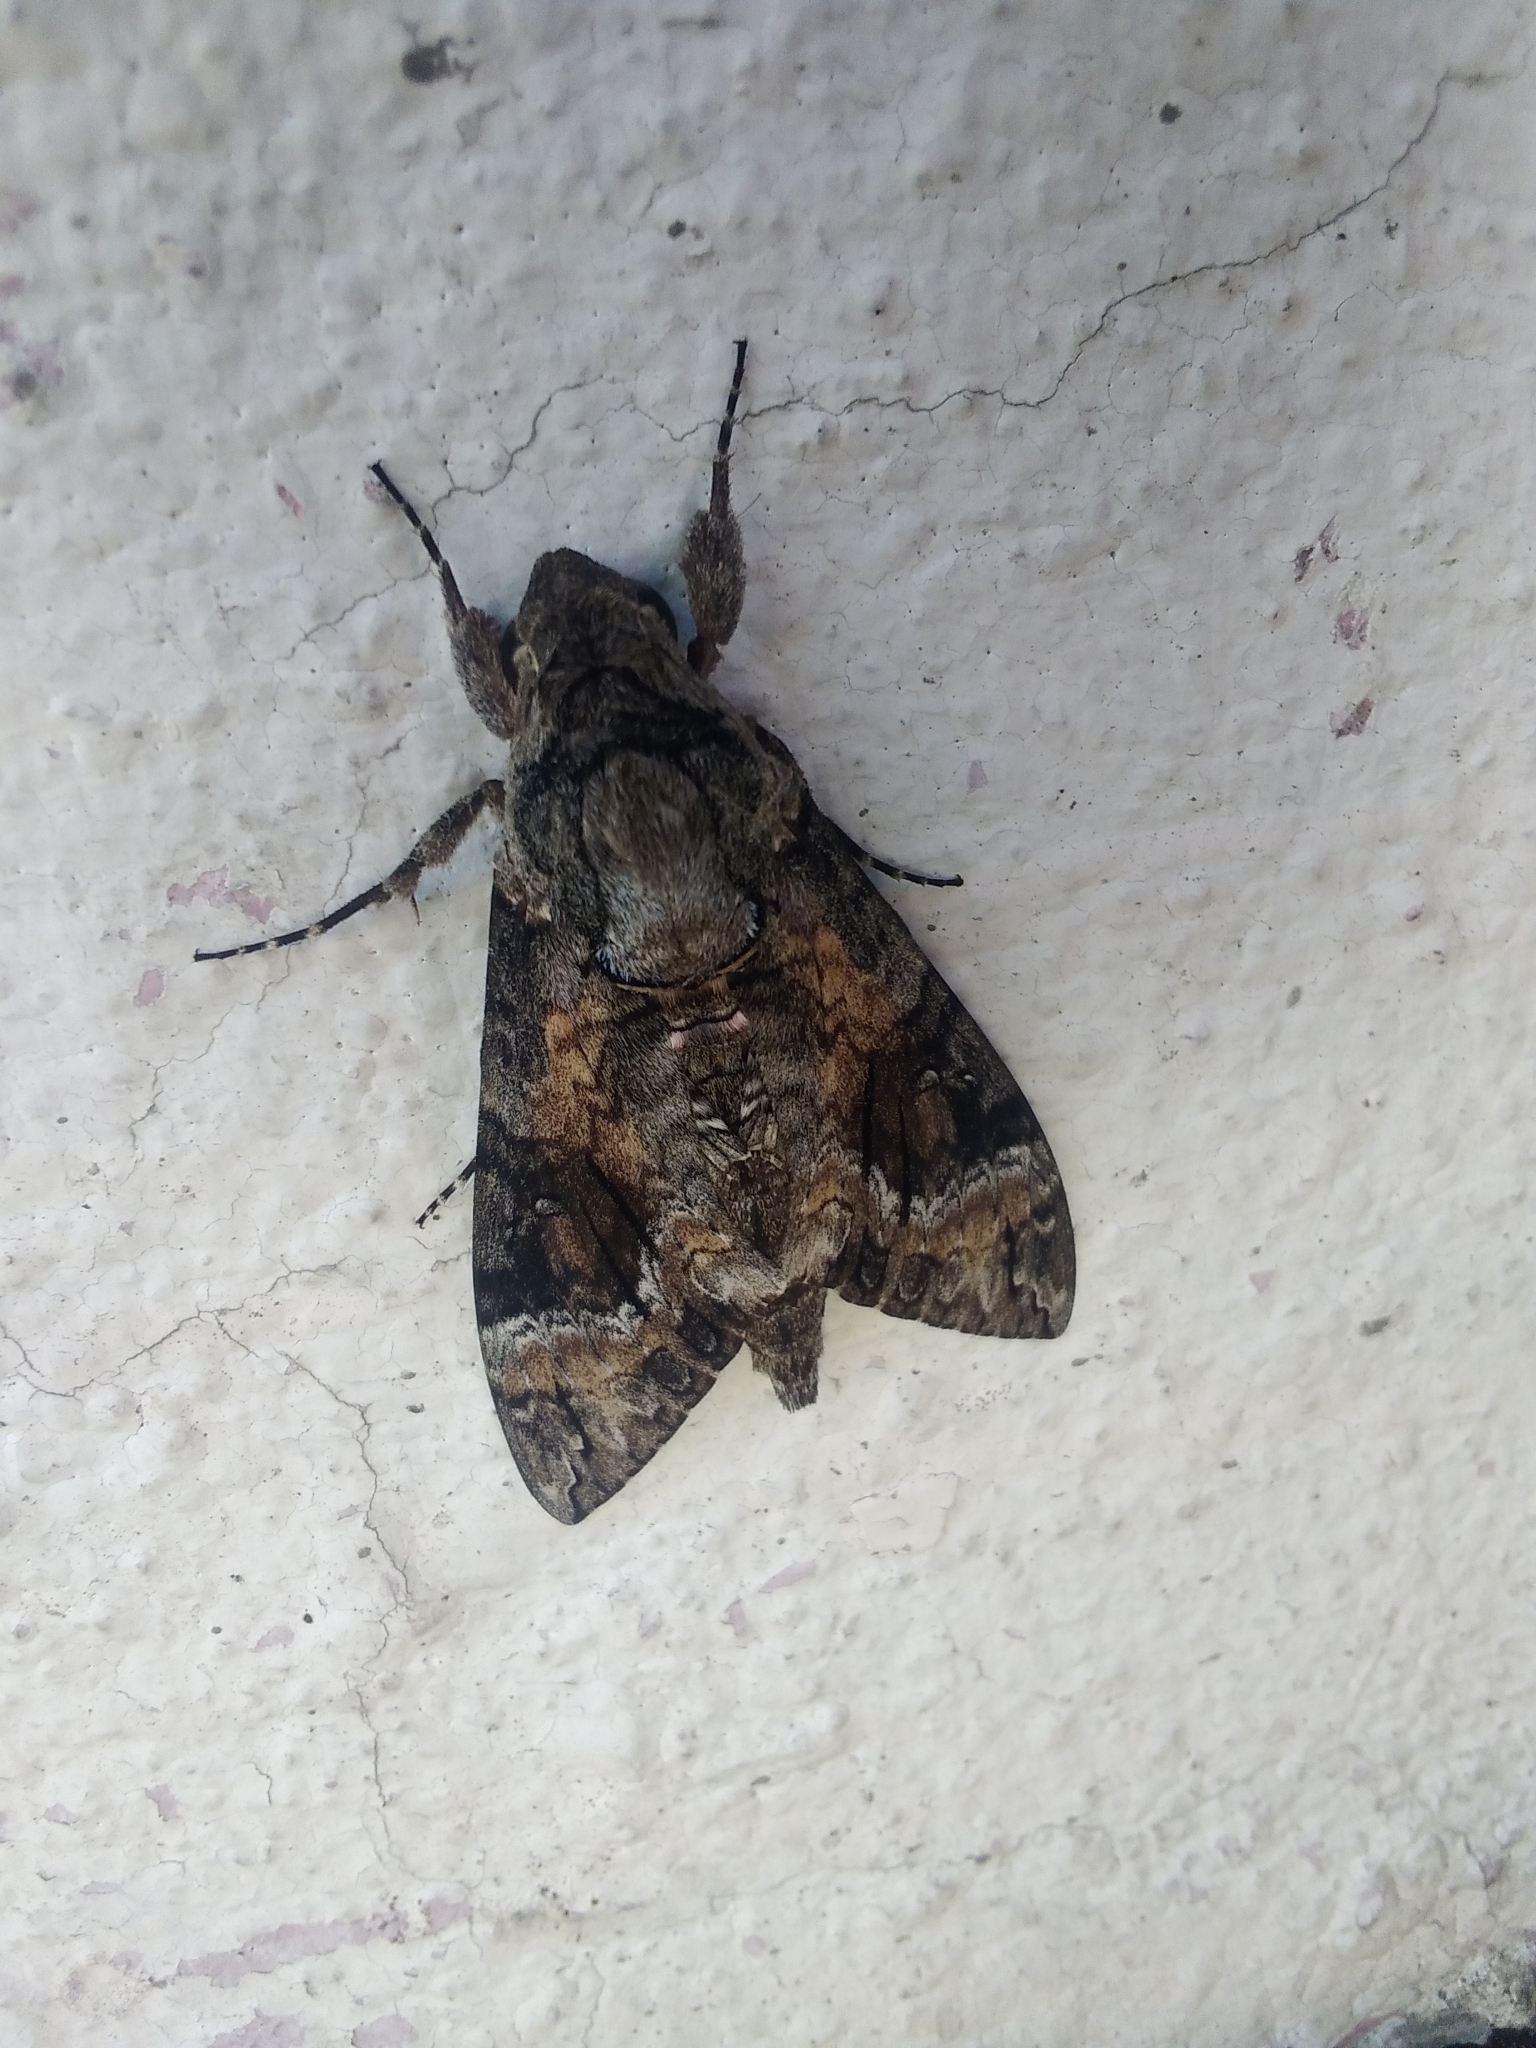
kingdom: Animalia
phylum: Arthropoda
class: Insecta
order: Lepidoptera
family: Sphingidae
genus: Agrius
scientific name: Agrius cingulata
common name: Pink-spotted hawkmoth
